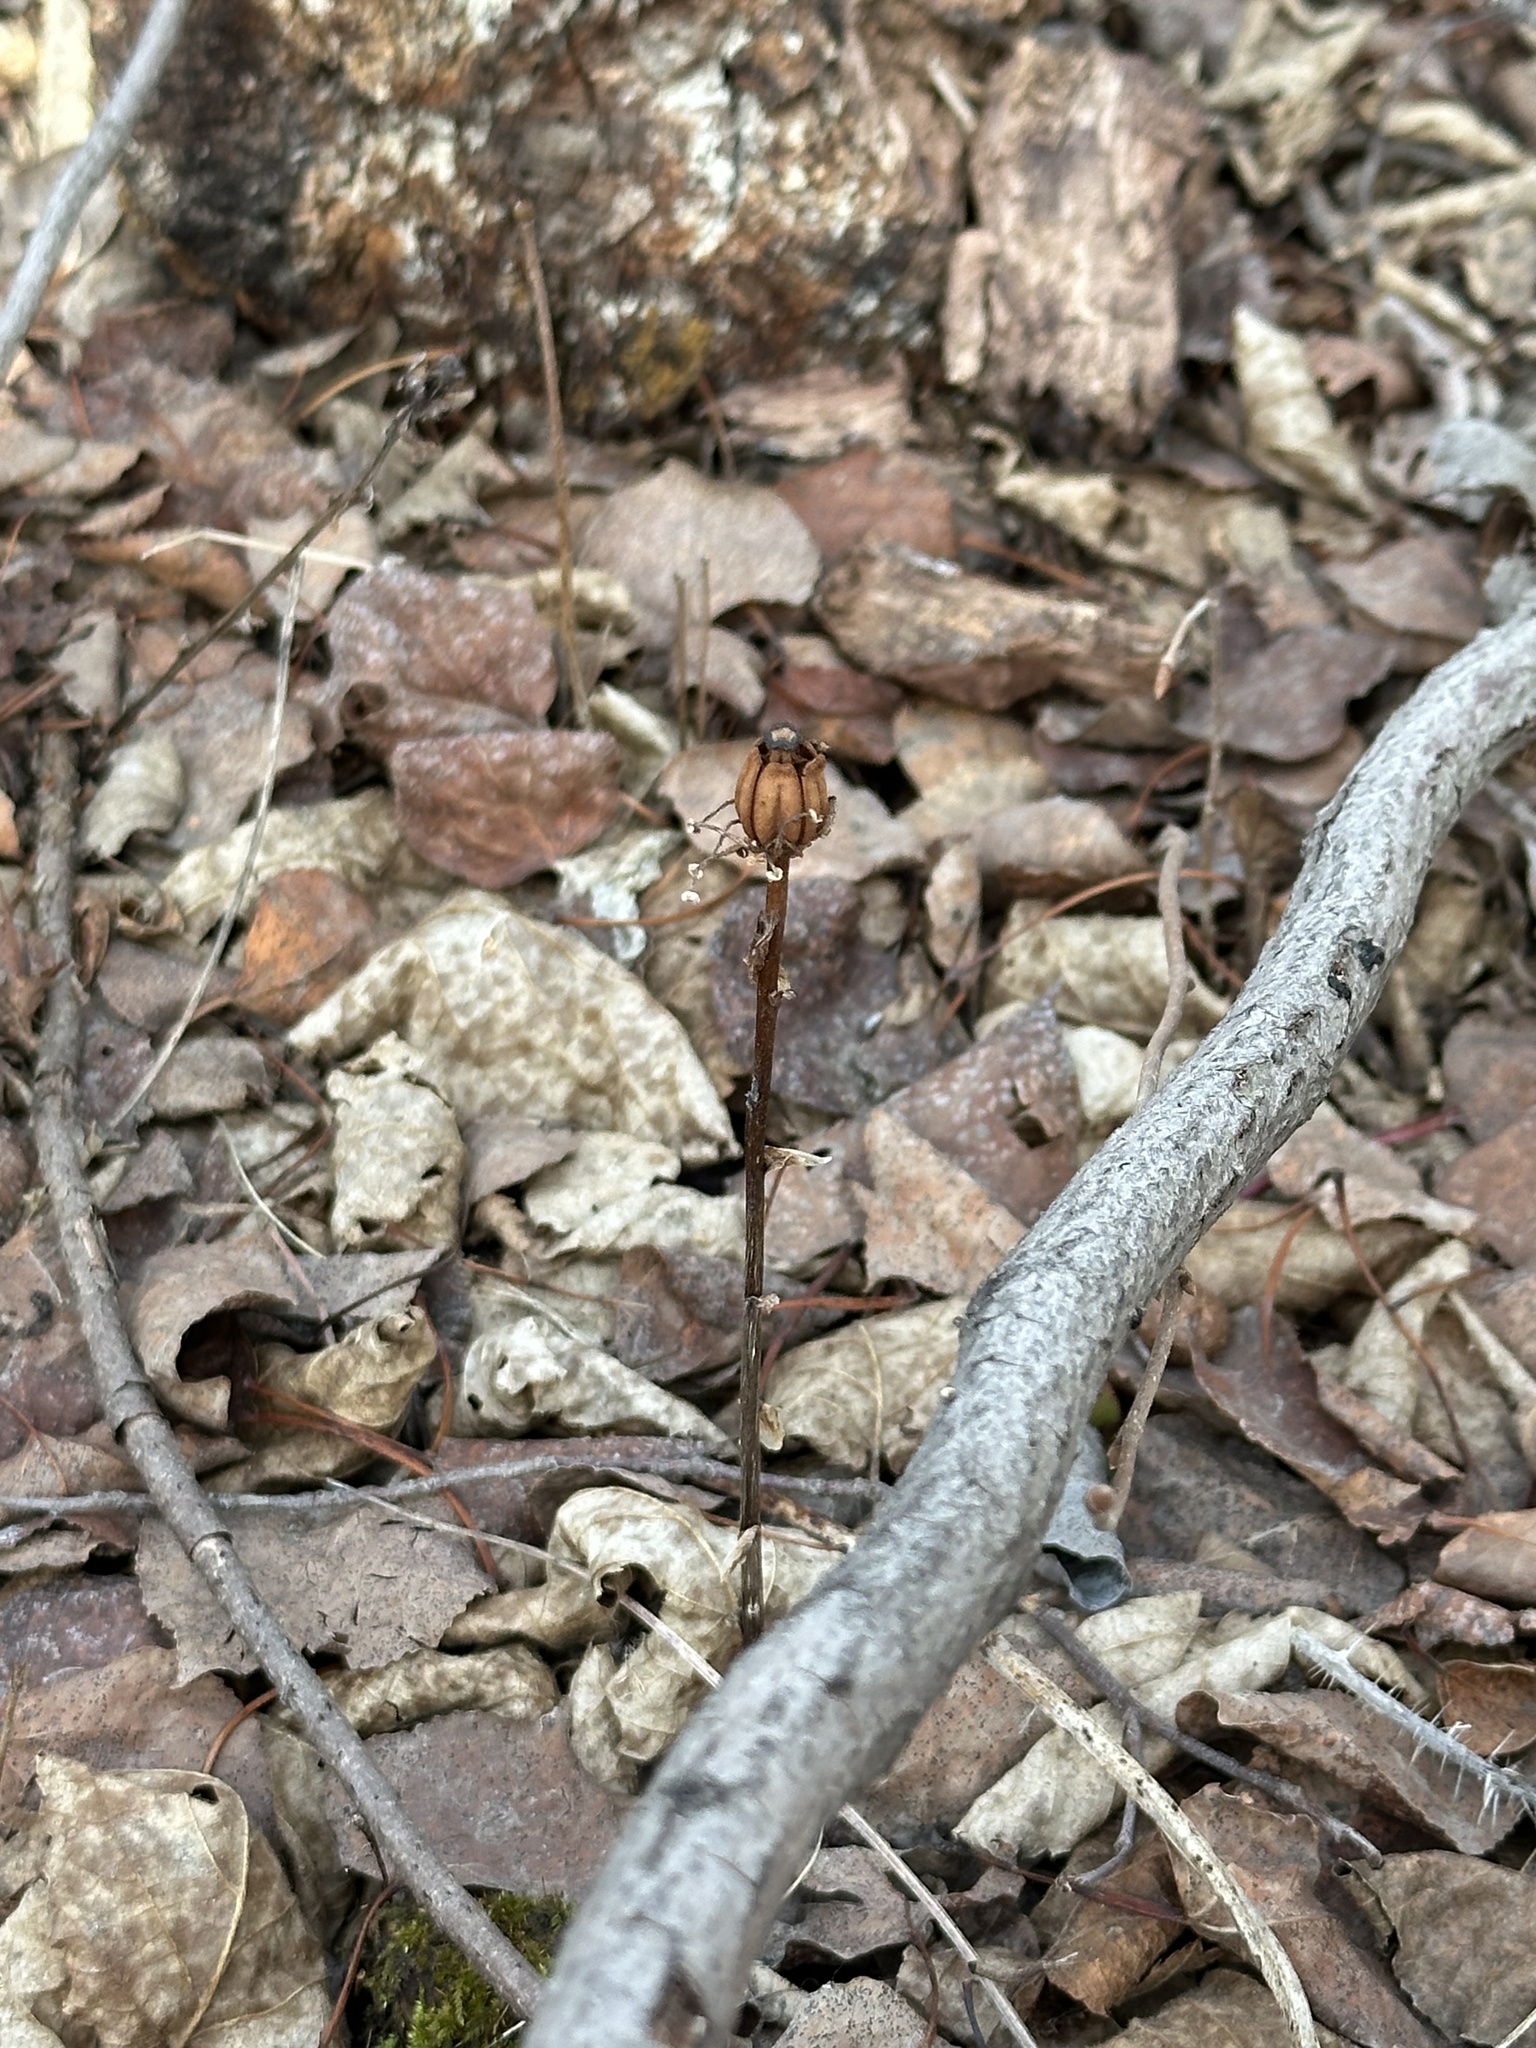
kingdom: Plantae
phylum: Tracheophyta
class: Magnoliopsida
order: Ericales
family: Ericaceae
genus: Monotropa
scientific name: Monotropa uniflora
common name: Convulsion root
